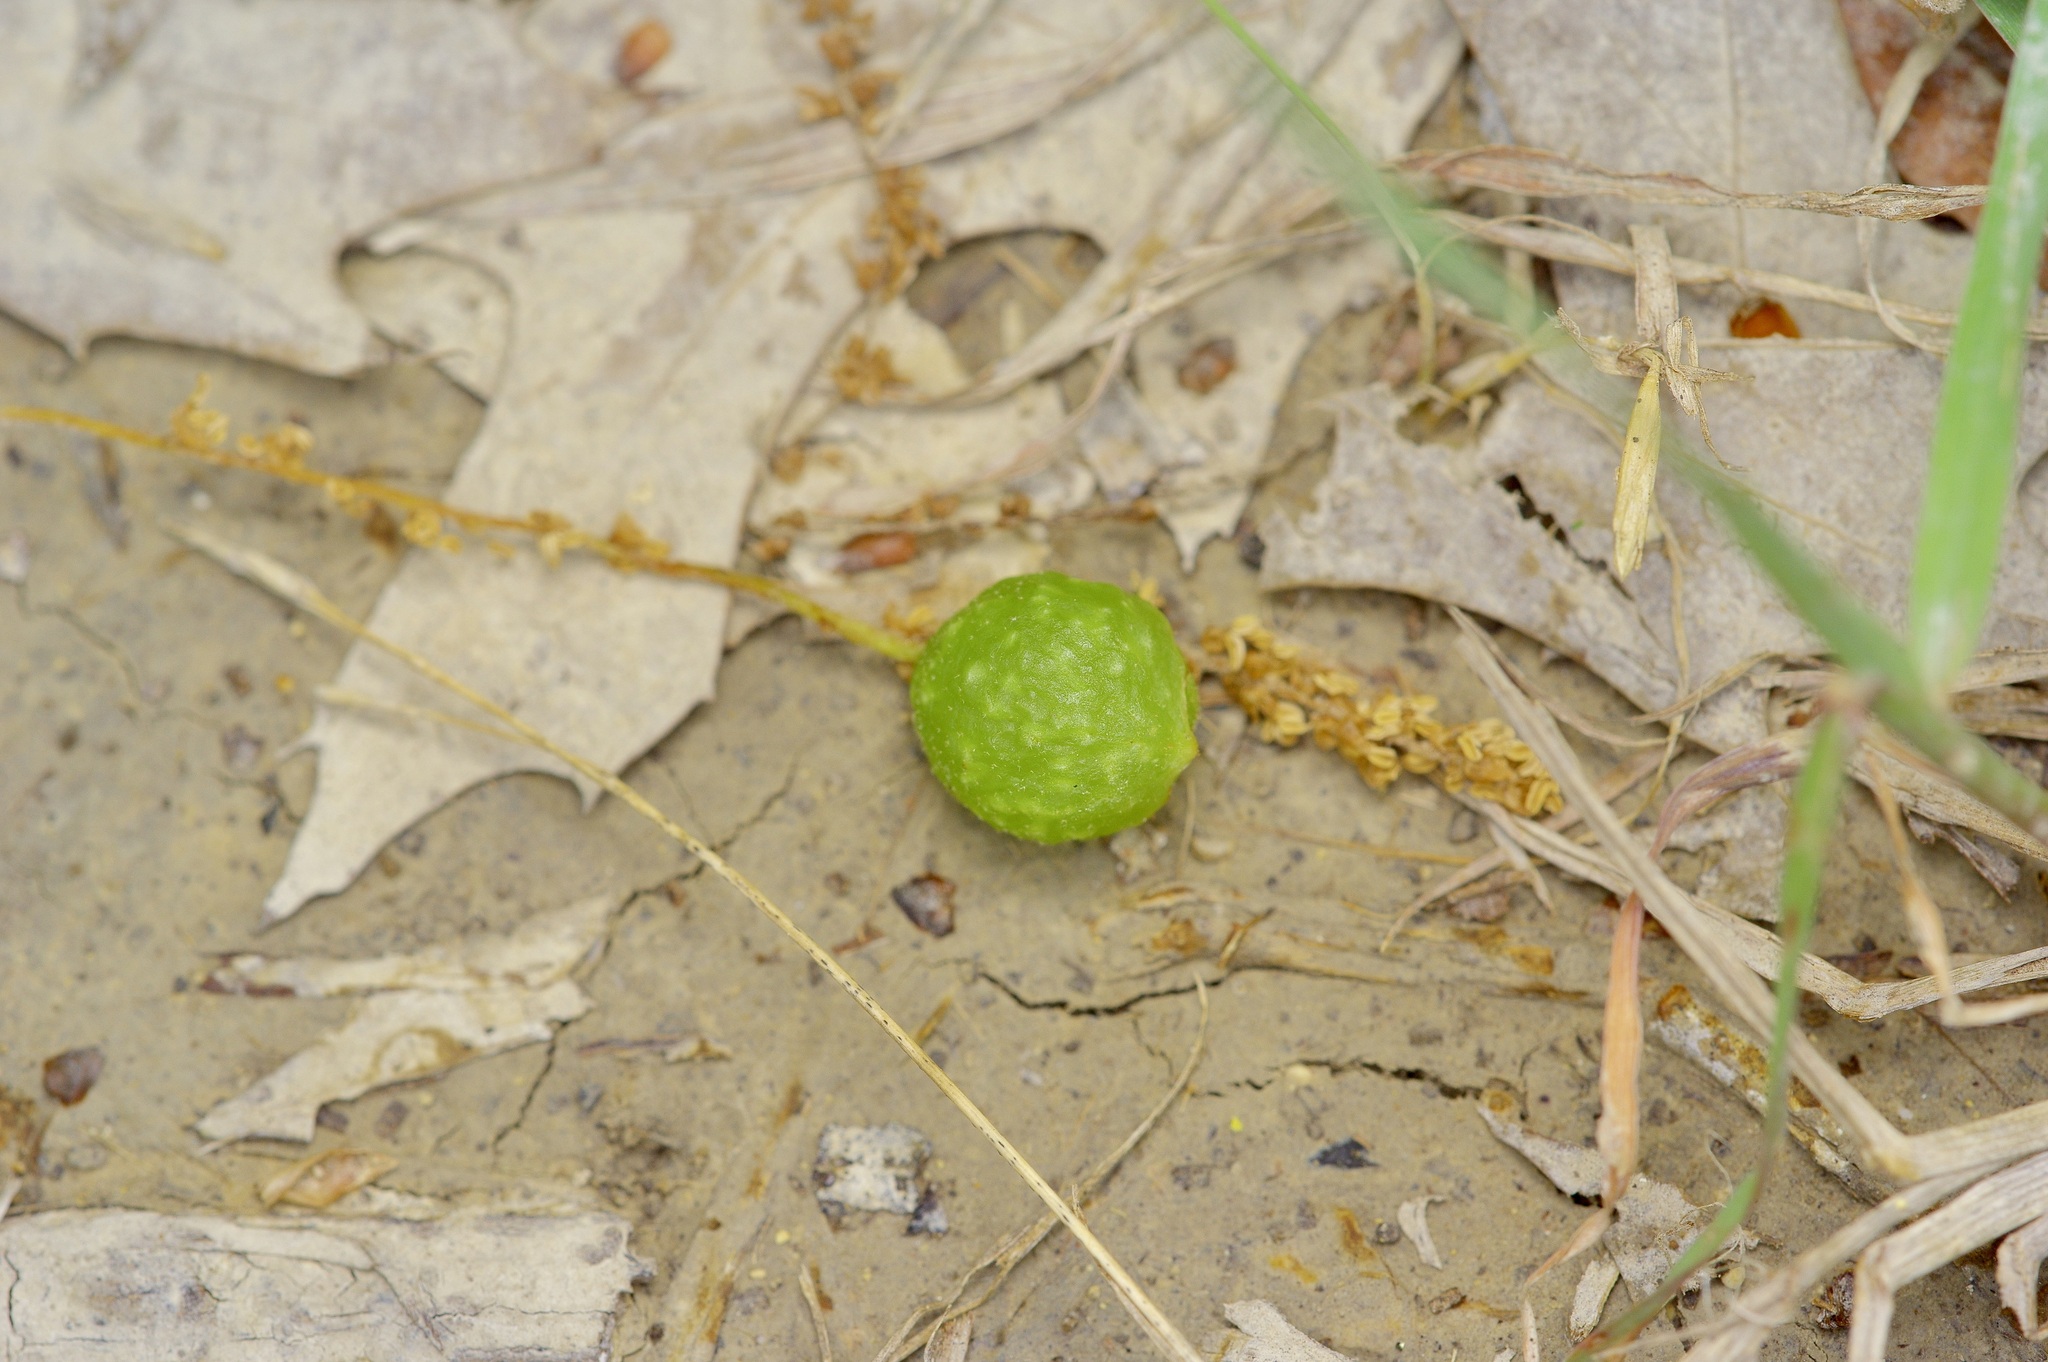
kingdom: Animalia
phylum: Arthropoda
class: Insecta
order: Hymenoptera
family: Cynipidae
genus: Dryocosmus
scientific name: Dryocosmus quercuspalustris
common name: Succulent oak gall wasp
